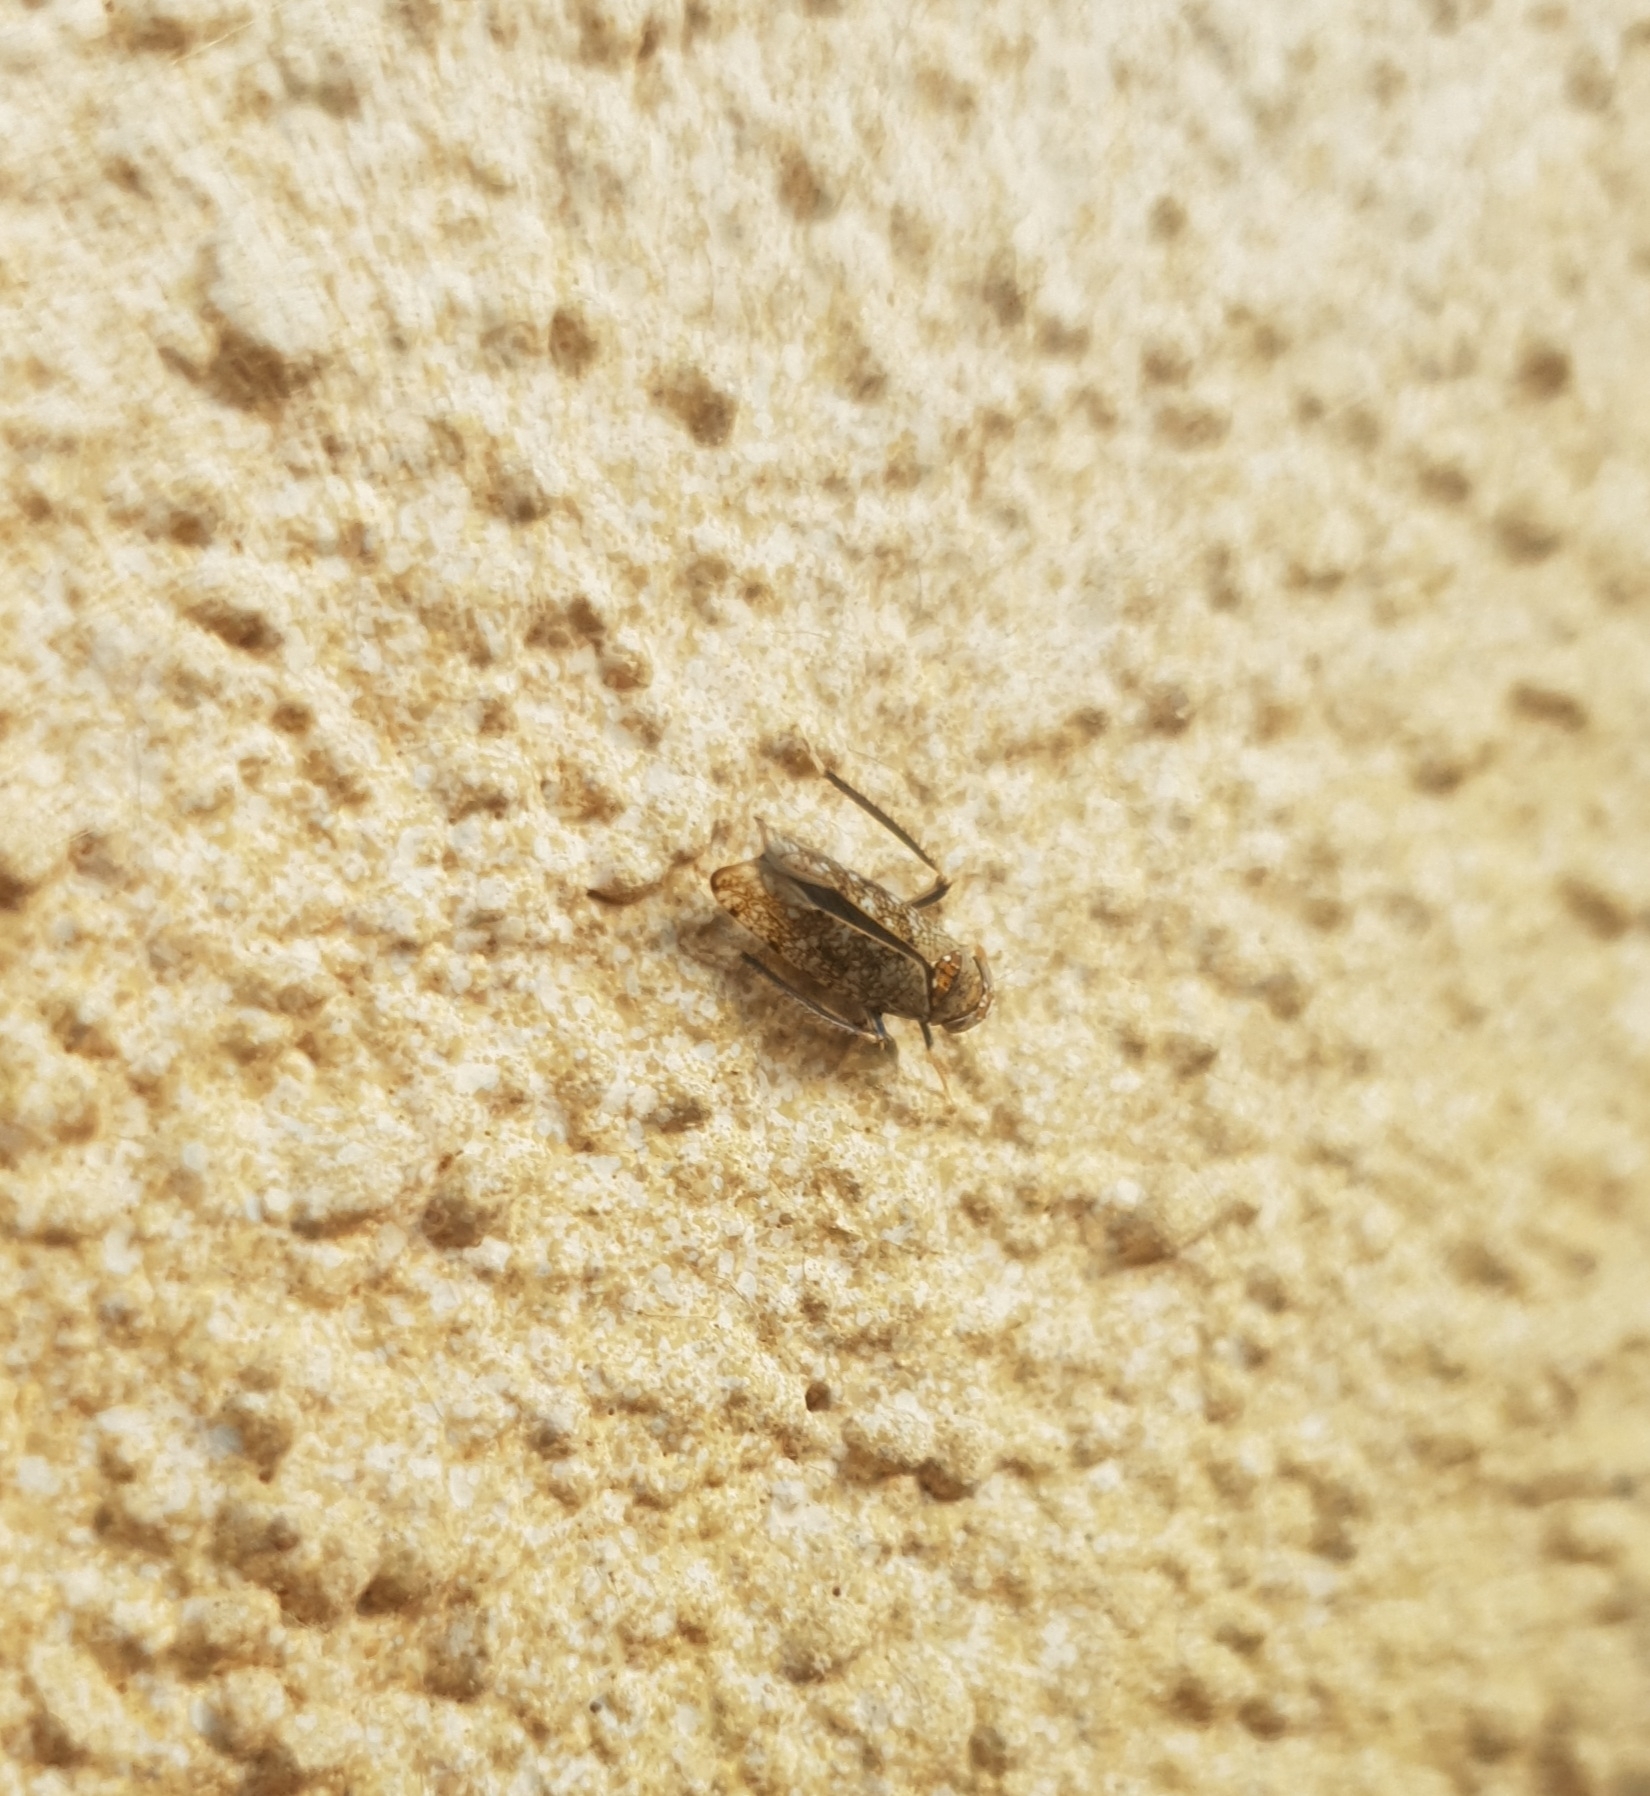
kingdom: Animalia
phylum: Arthropoda
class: Insecta
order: Hemiptera
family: Cicadellidae
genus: Orientus
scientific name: Orientus ishidae
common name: Japanese leafhopper
